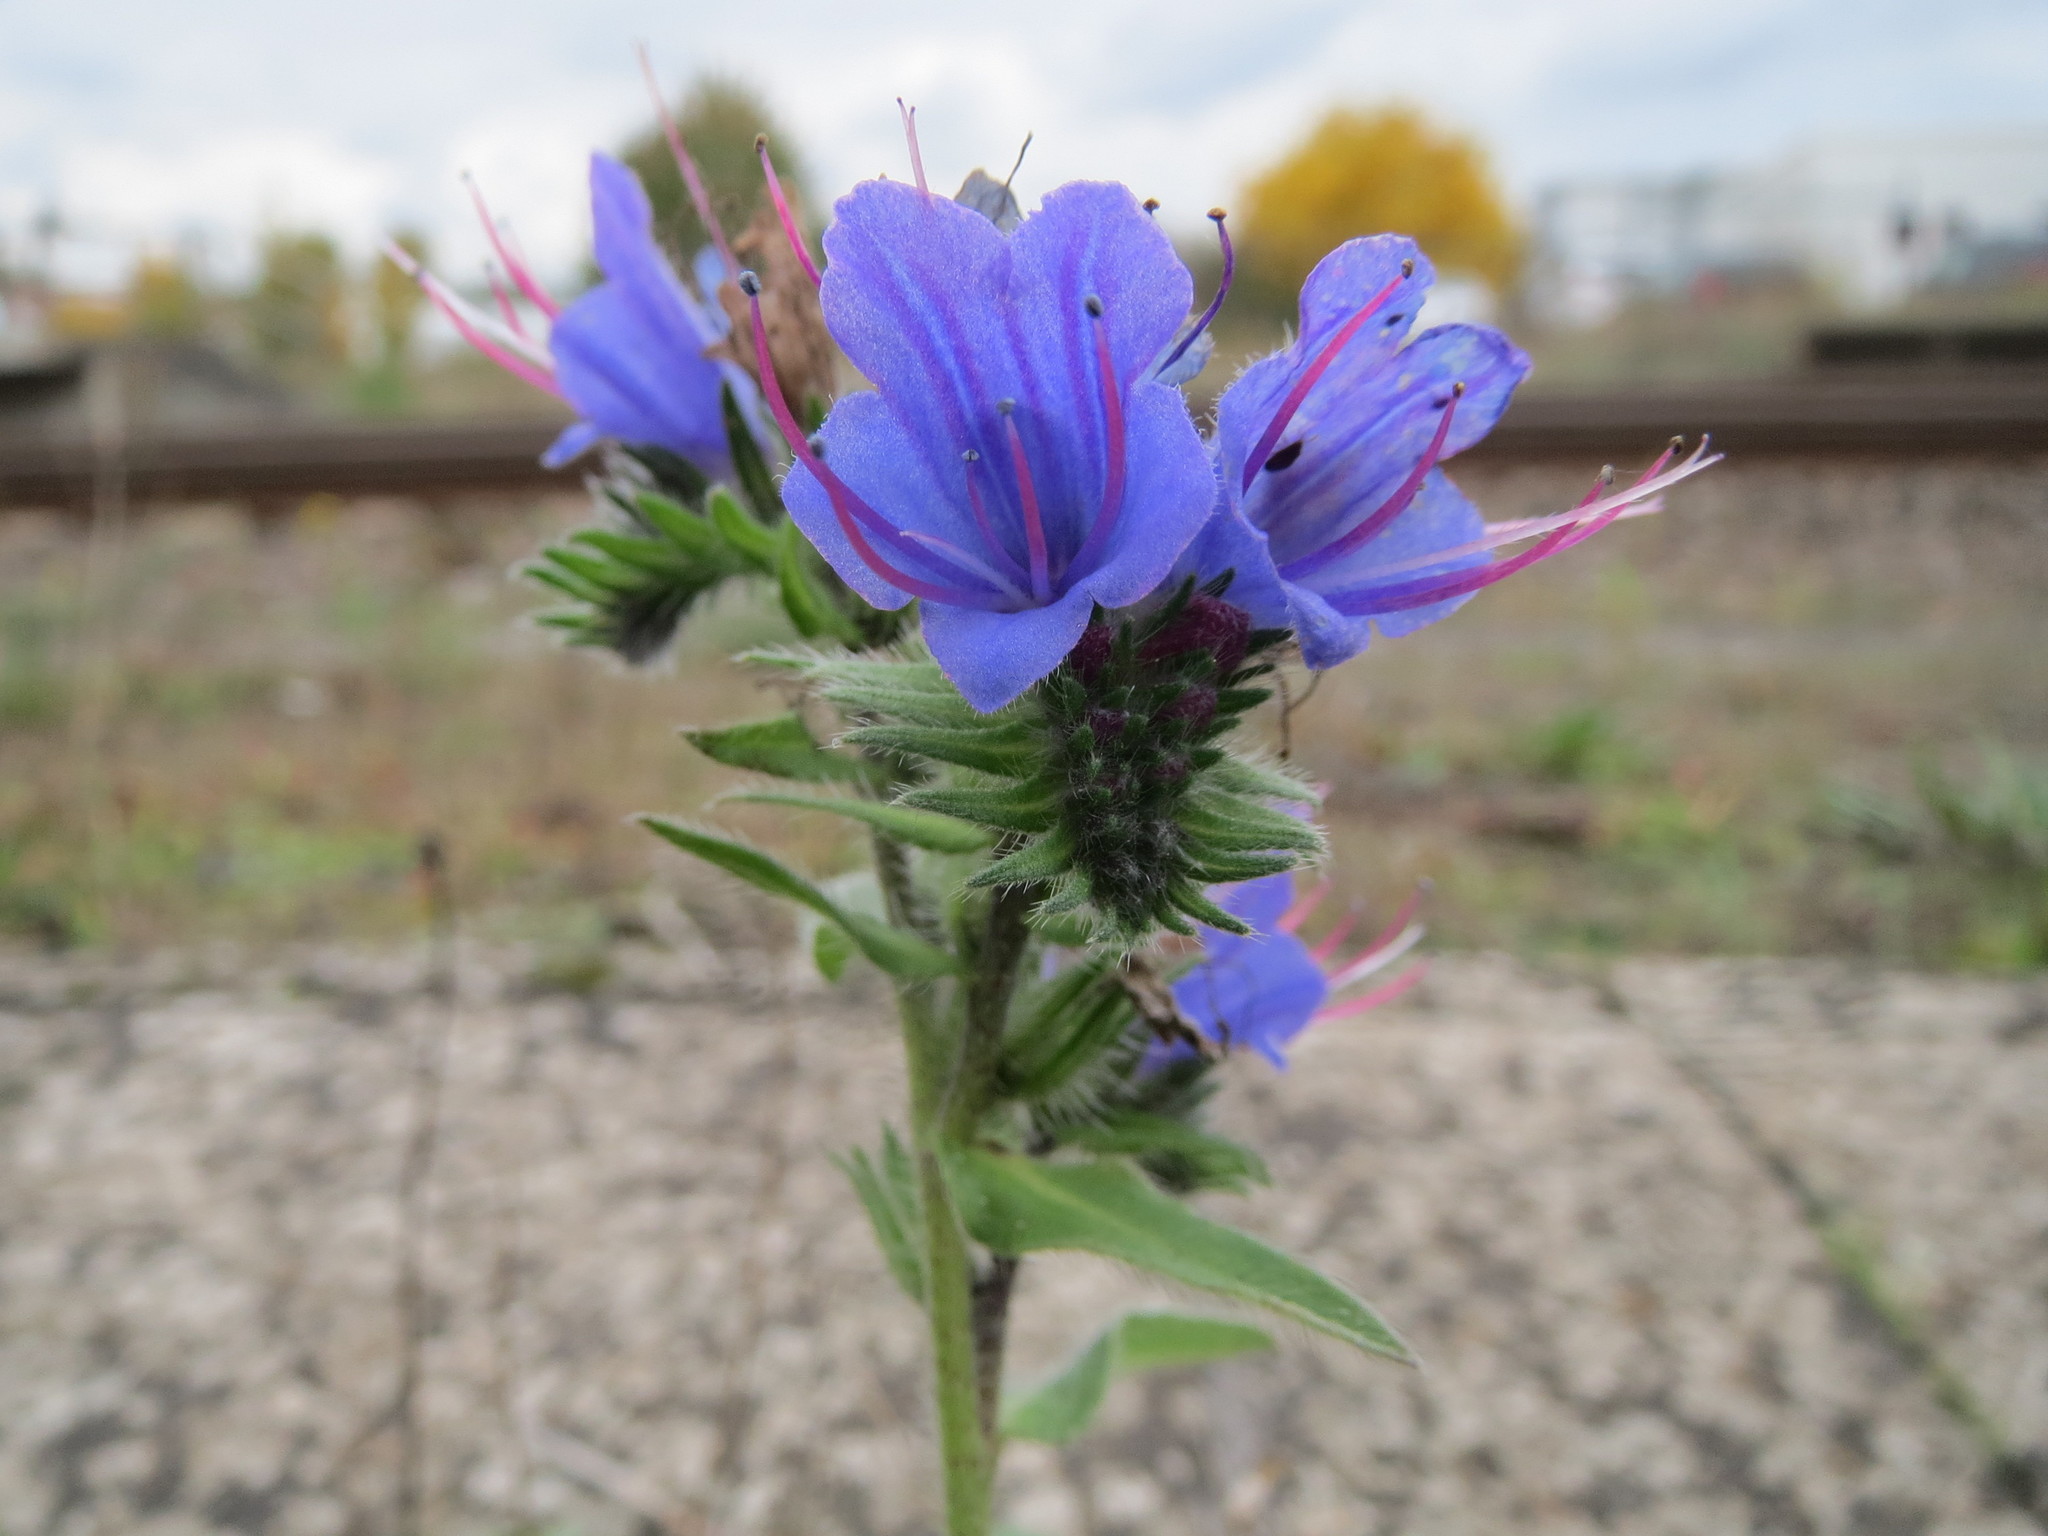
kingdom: Plantae
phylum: Tracheophyta
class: Magnoliopsida
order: Boraginales
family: Boraginaceae
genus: Echium
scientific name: Echium vulgare
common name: Common viper's bugloss
